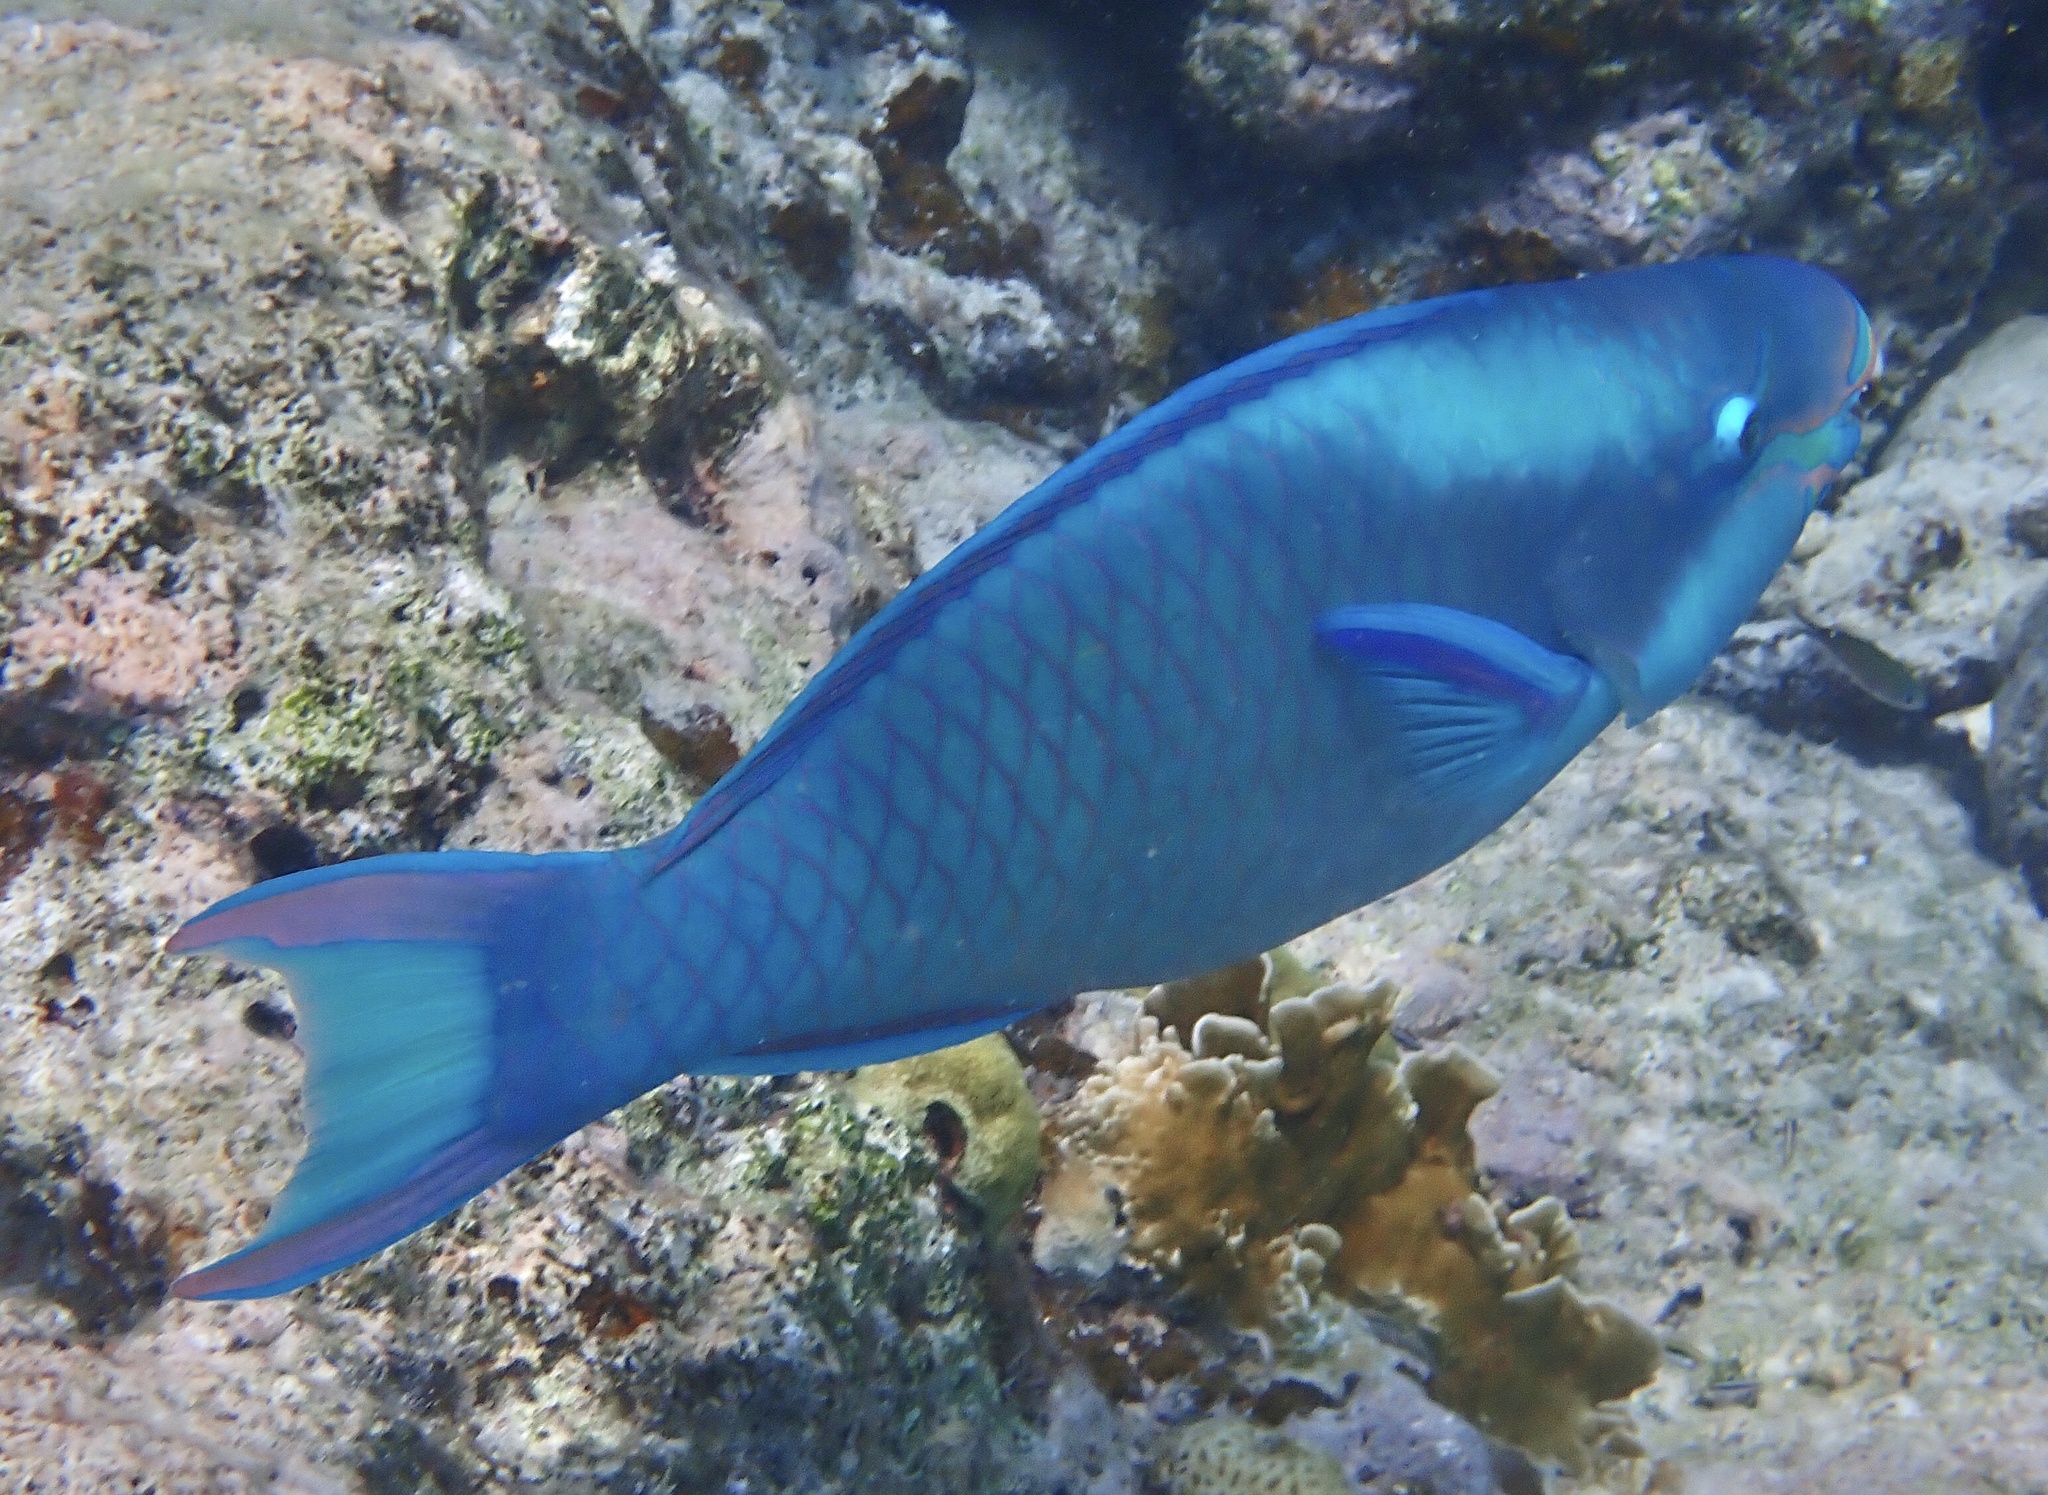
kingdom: Animalia
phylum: Chordata
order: Perciformes
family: Scaridae
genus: Scarus
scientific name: Scarus vetula
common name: Queen parrotfish
